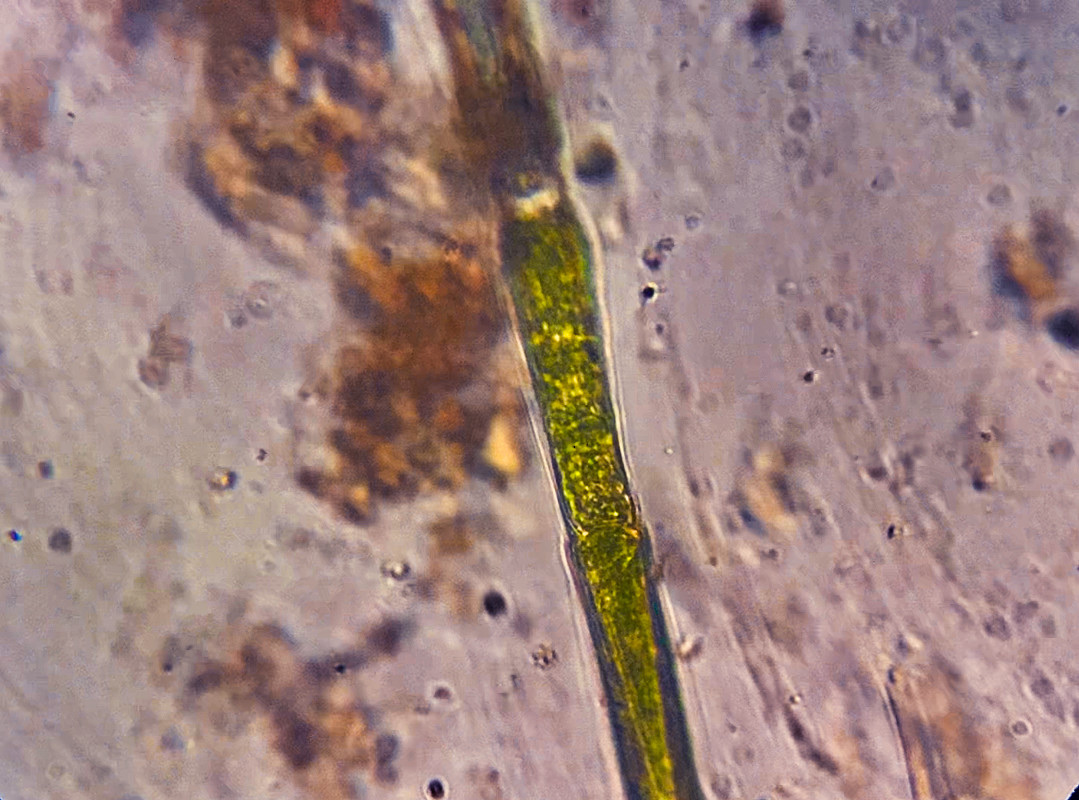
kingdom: Plantae
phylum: Chlorophyta
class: Chlorophyceae
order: Oedogoniales
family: Oedogoniaceae
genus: Oedogonium
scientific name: Oedogonium
